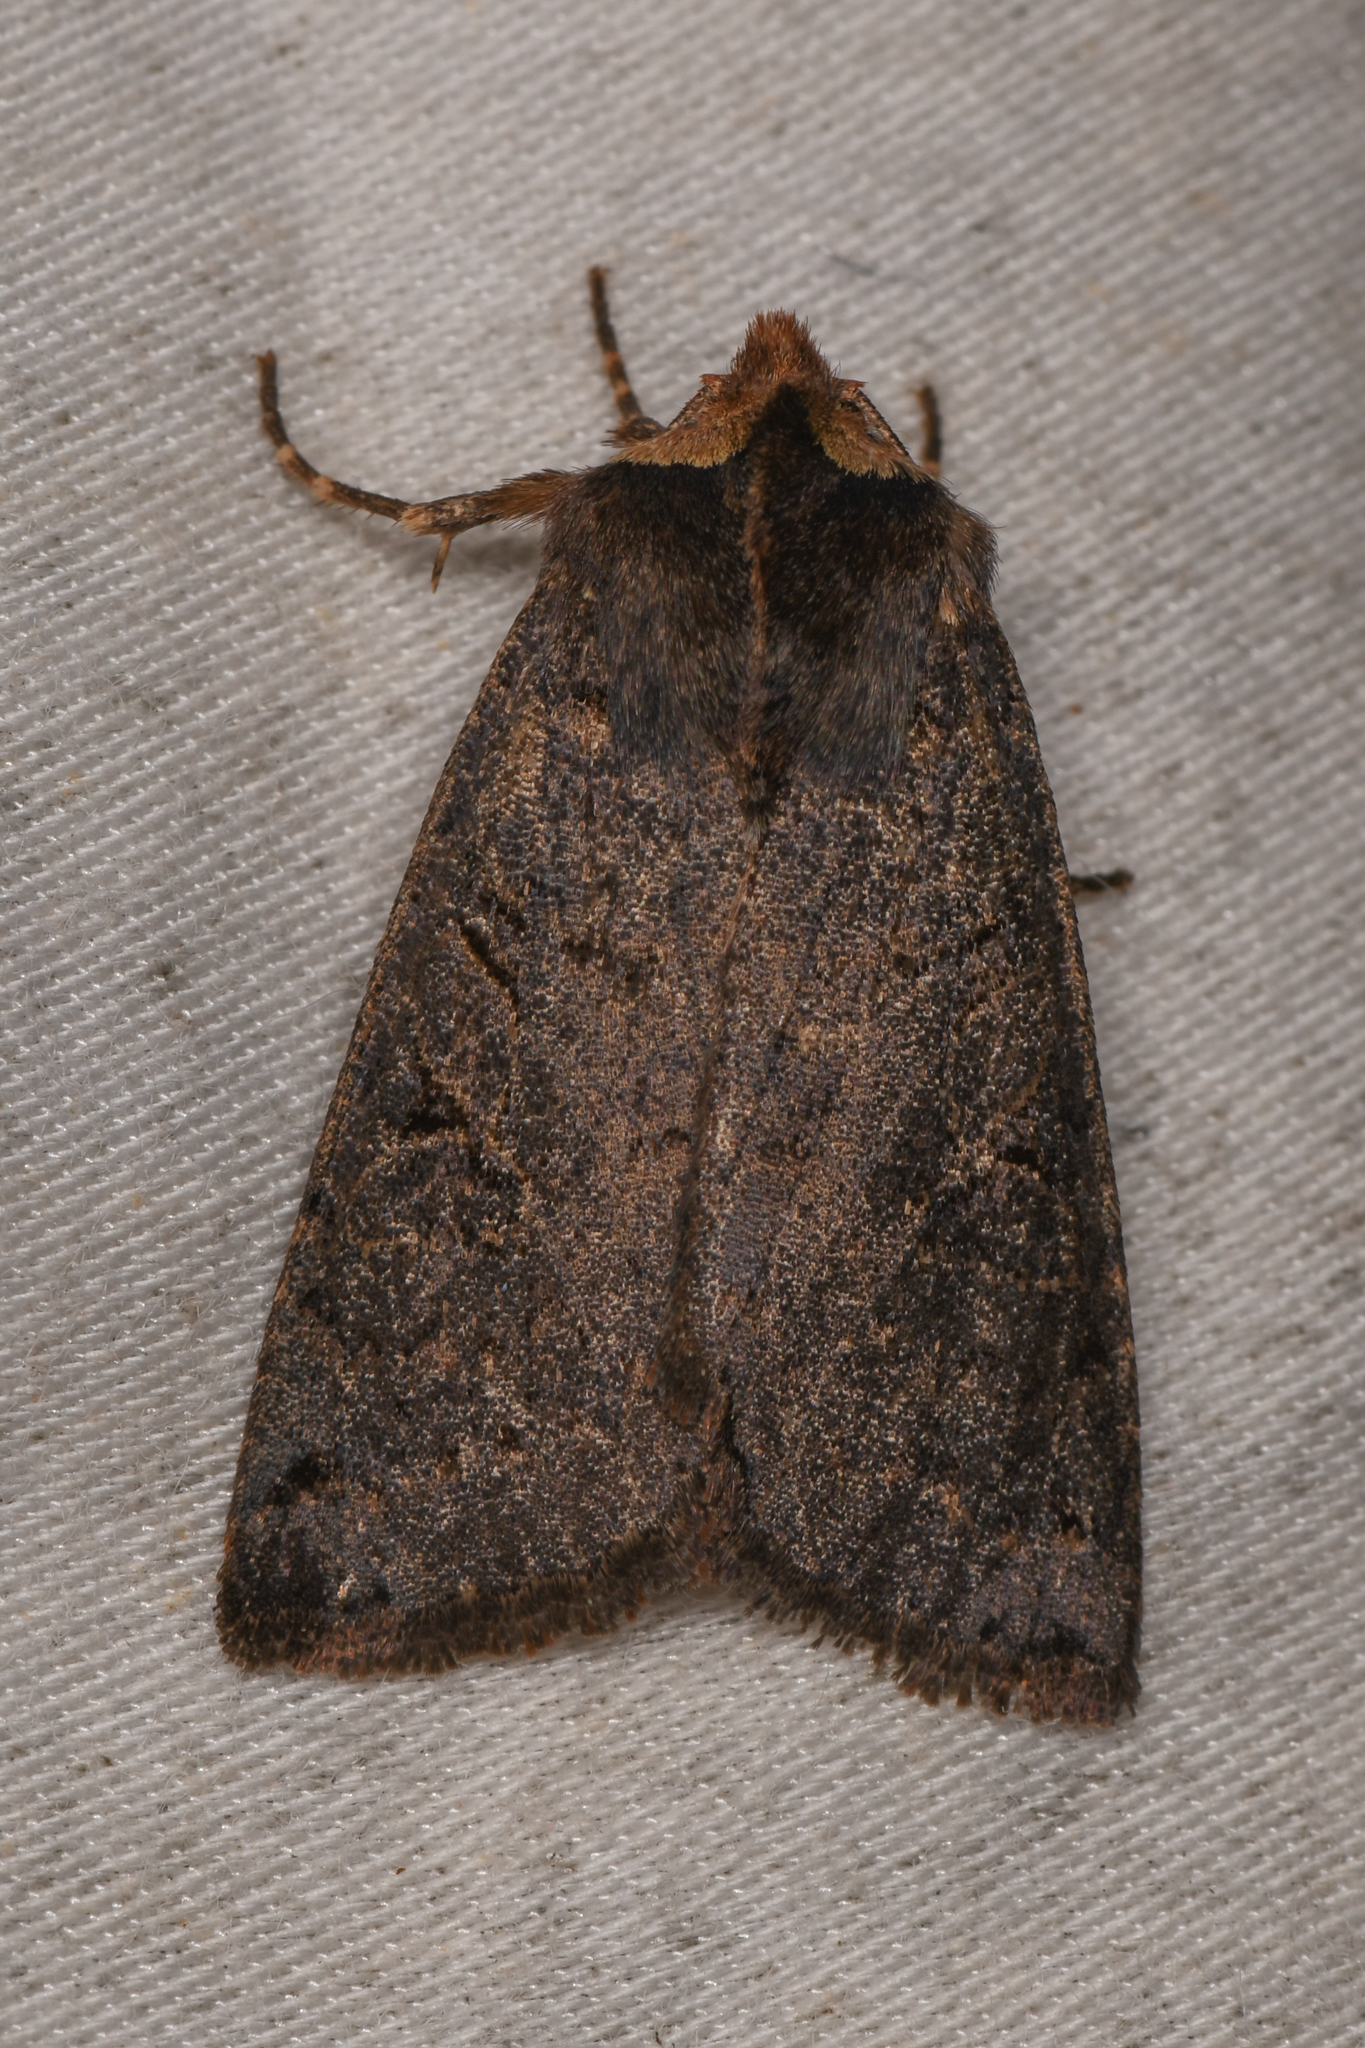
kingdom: Animalia
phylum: Arthropoda
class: Insecta
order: Lepidoptera
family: Noctuidae
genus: Orthosia
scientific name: Orthosia praeses
